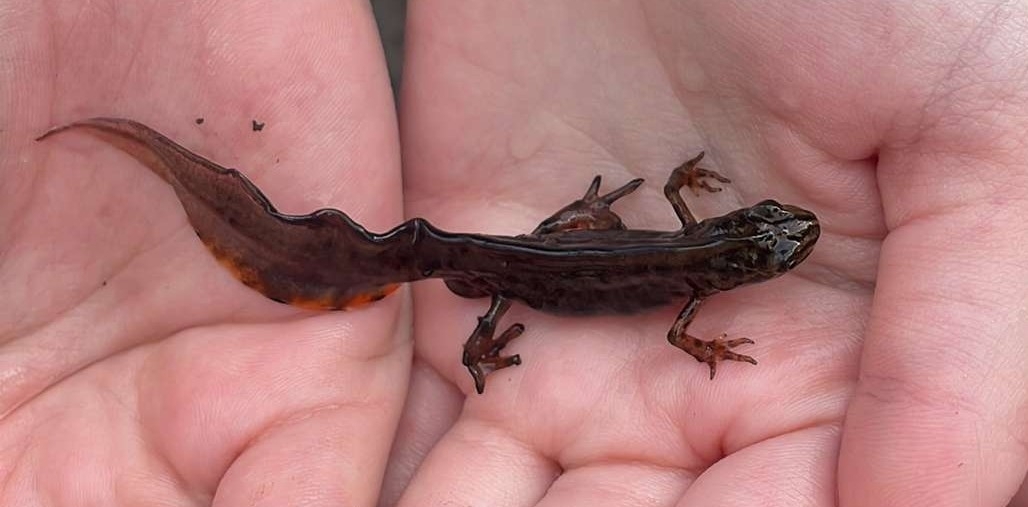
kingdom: Animalia
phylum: Chordata
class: Amphibia
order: Caudata
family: Salamandridae
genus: Lissotriton
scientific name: Lissotriton vulgaris
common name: Smooth newt
